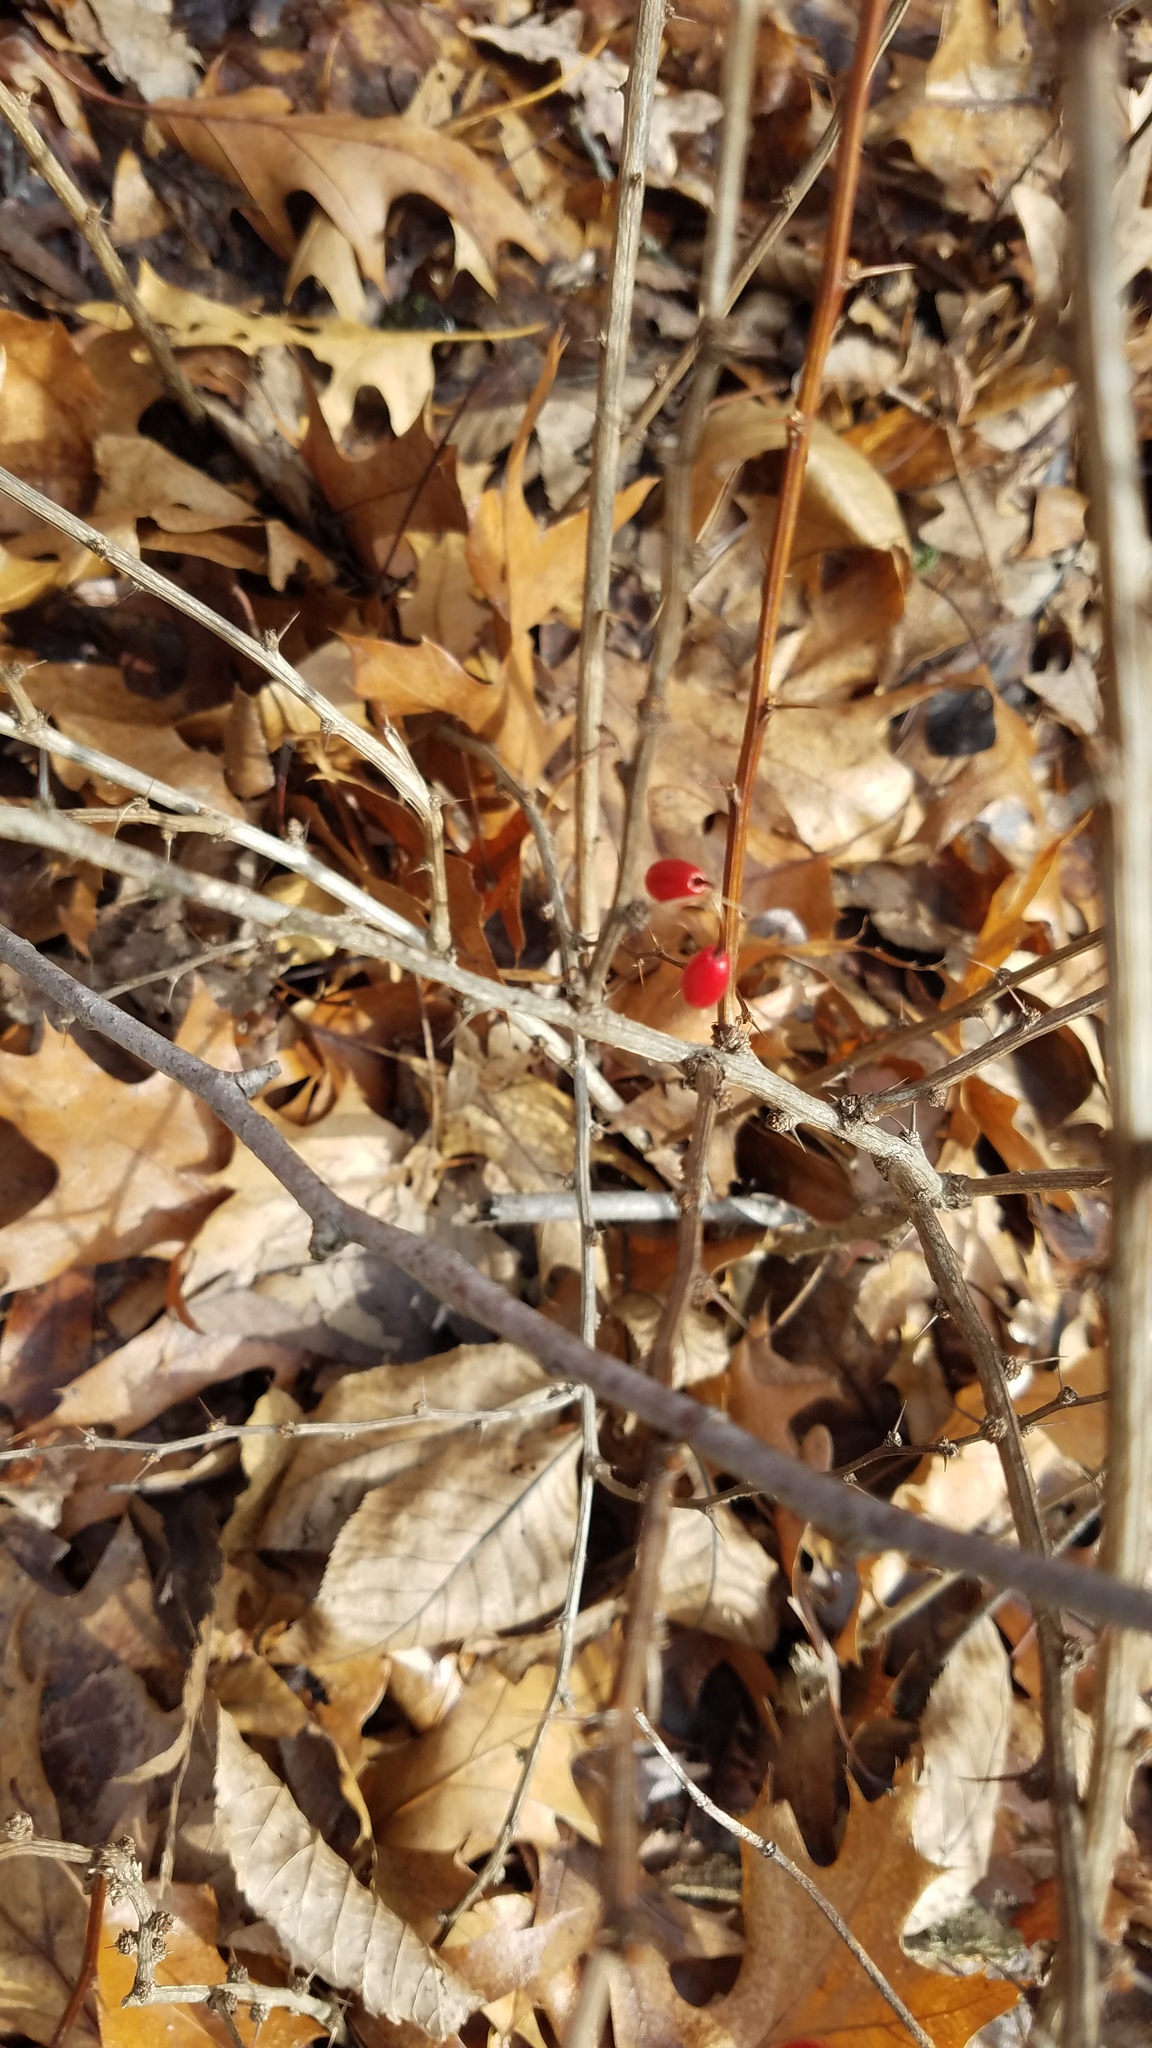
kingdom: Plantae
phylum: Tracheophyta
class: Magnoliopsida
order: Ranunculales
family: Berberidaceae
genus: Berberis
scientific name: Berberis thunbergii
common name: Japanese barberry
